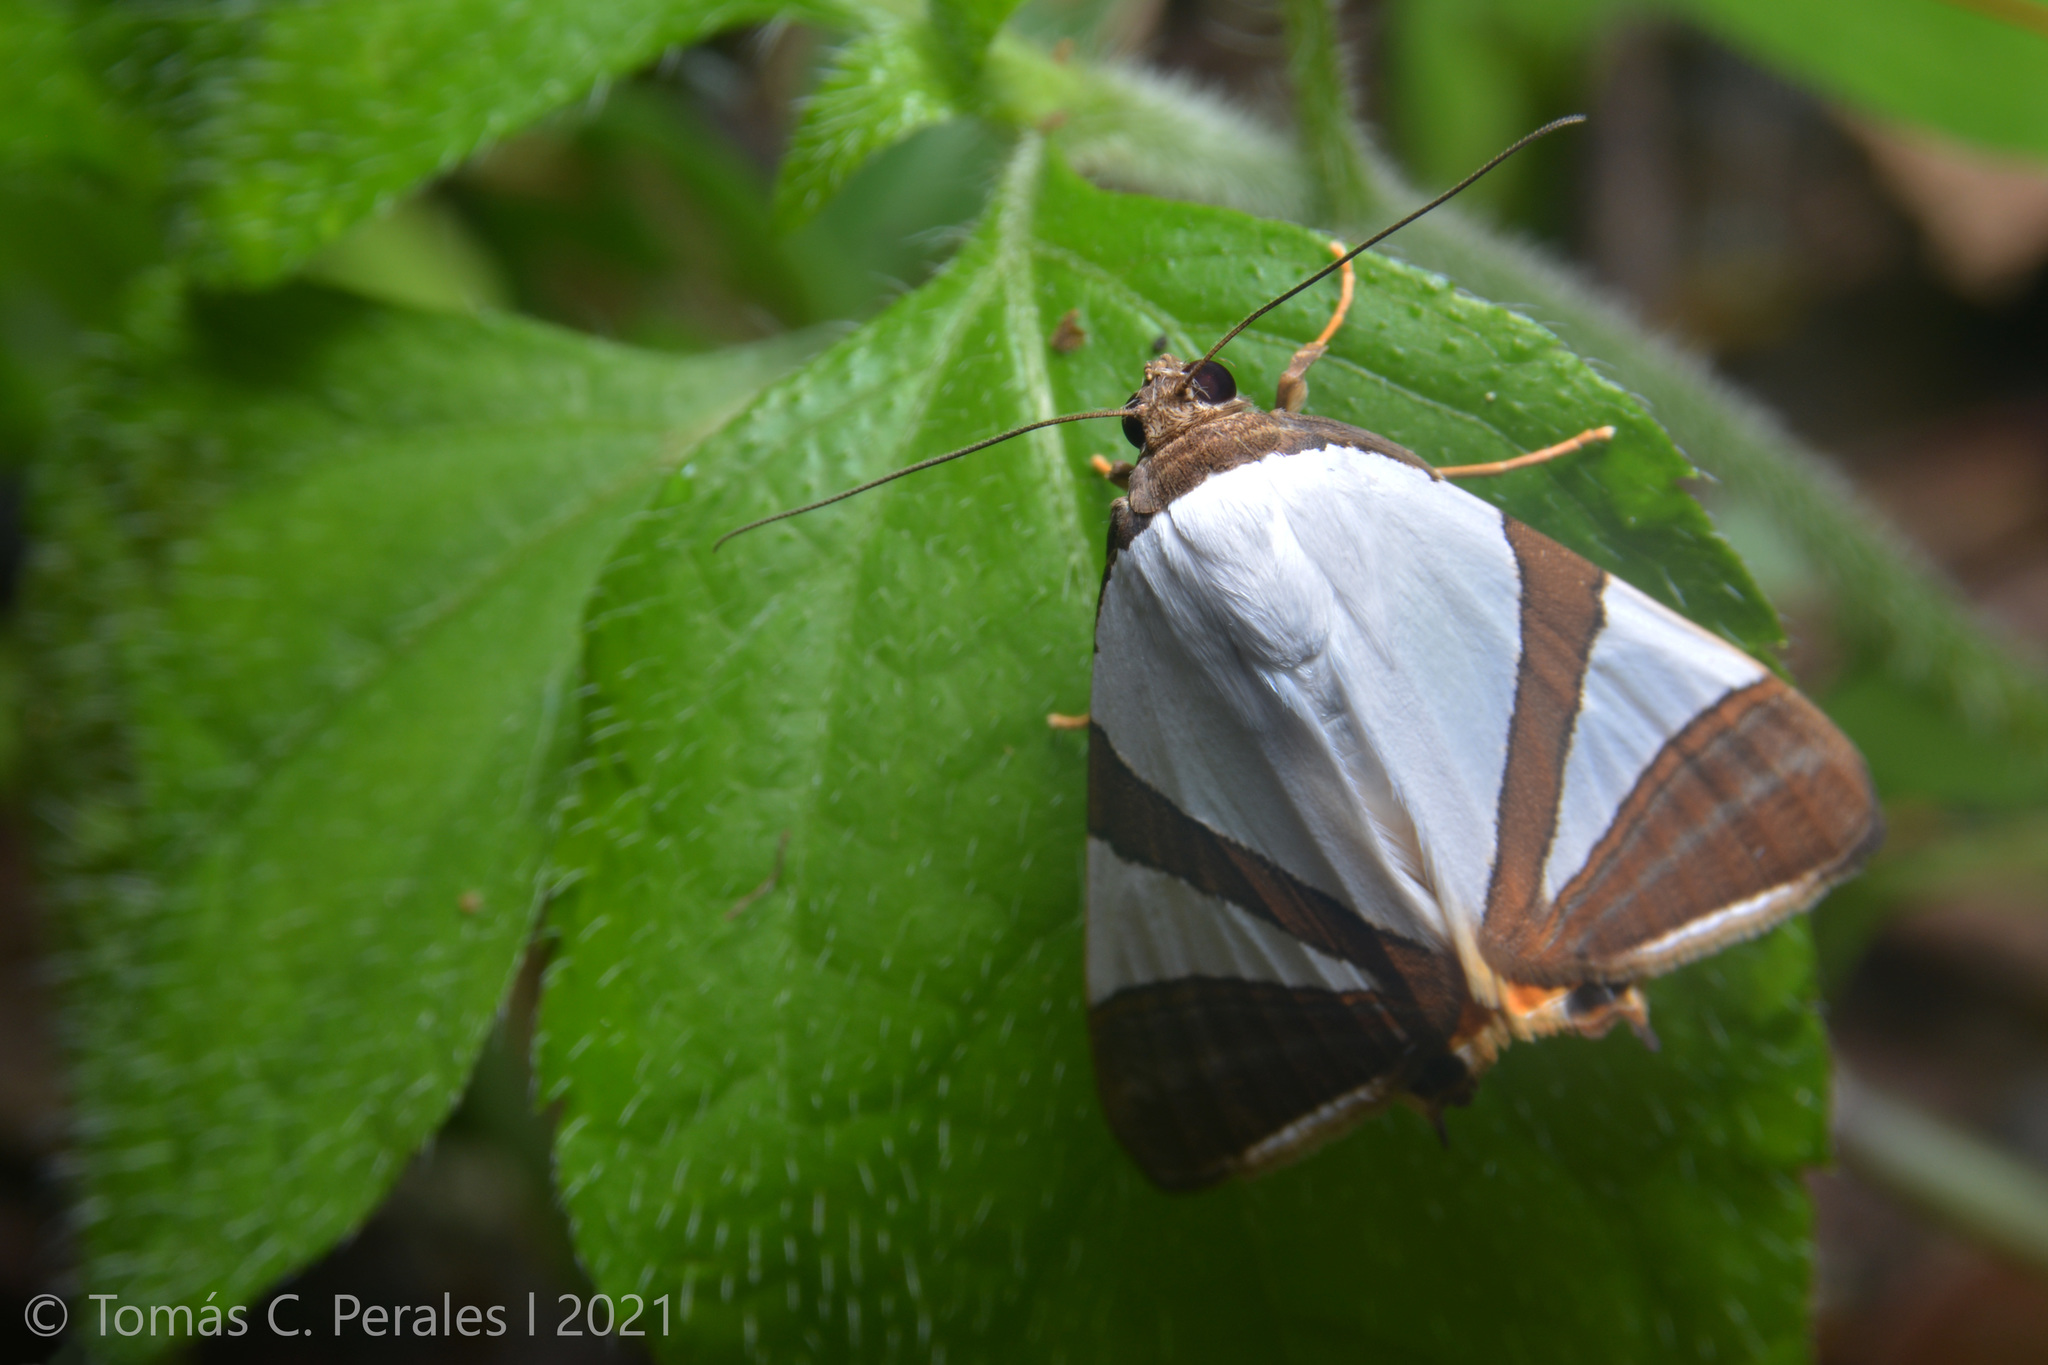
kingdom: Animalia
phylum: Arthropoda
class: Insecta
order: Lepidoptera
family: Erebidae
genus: Eulepidotis
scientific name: Eulepidotis rectimargo
